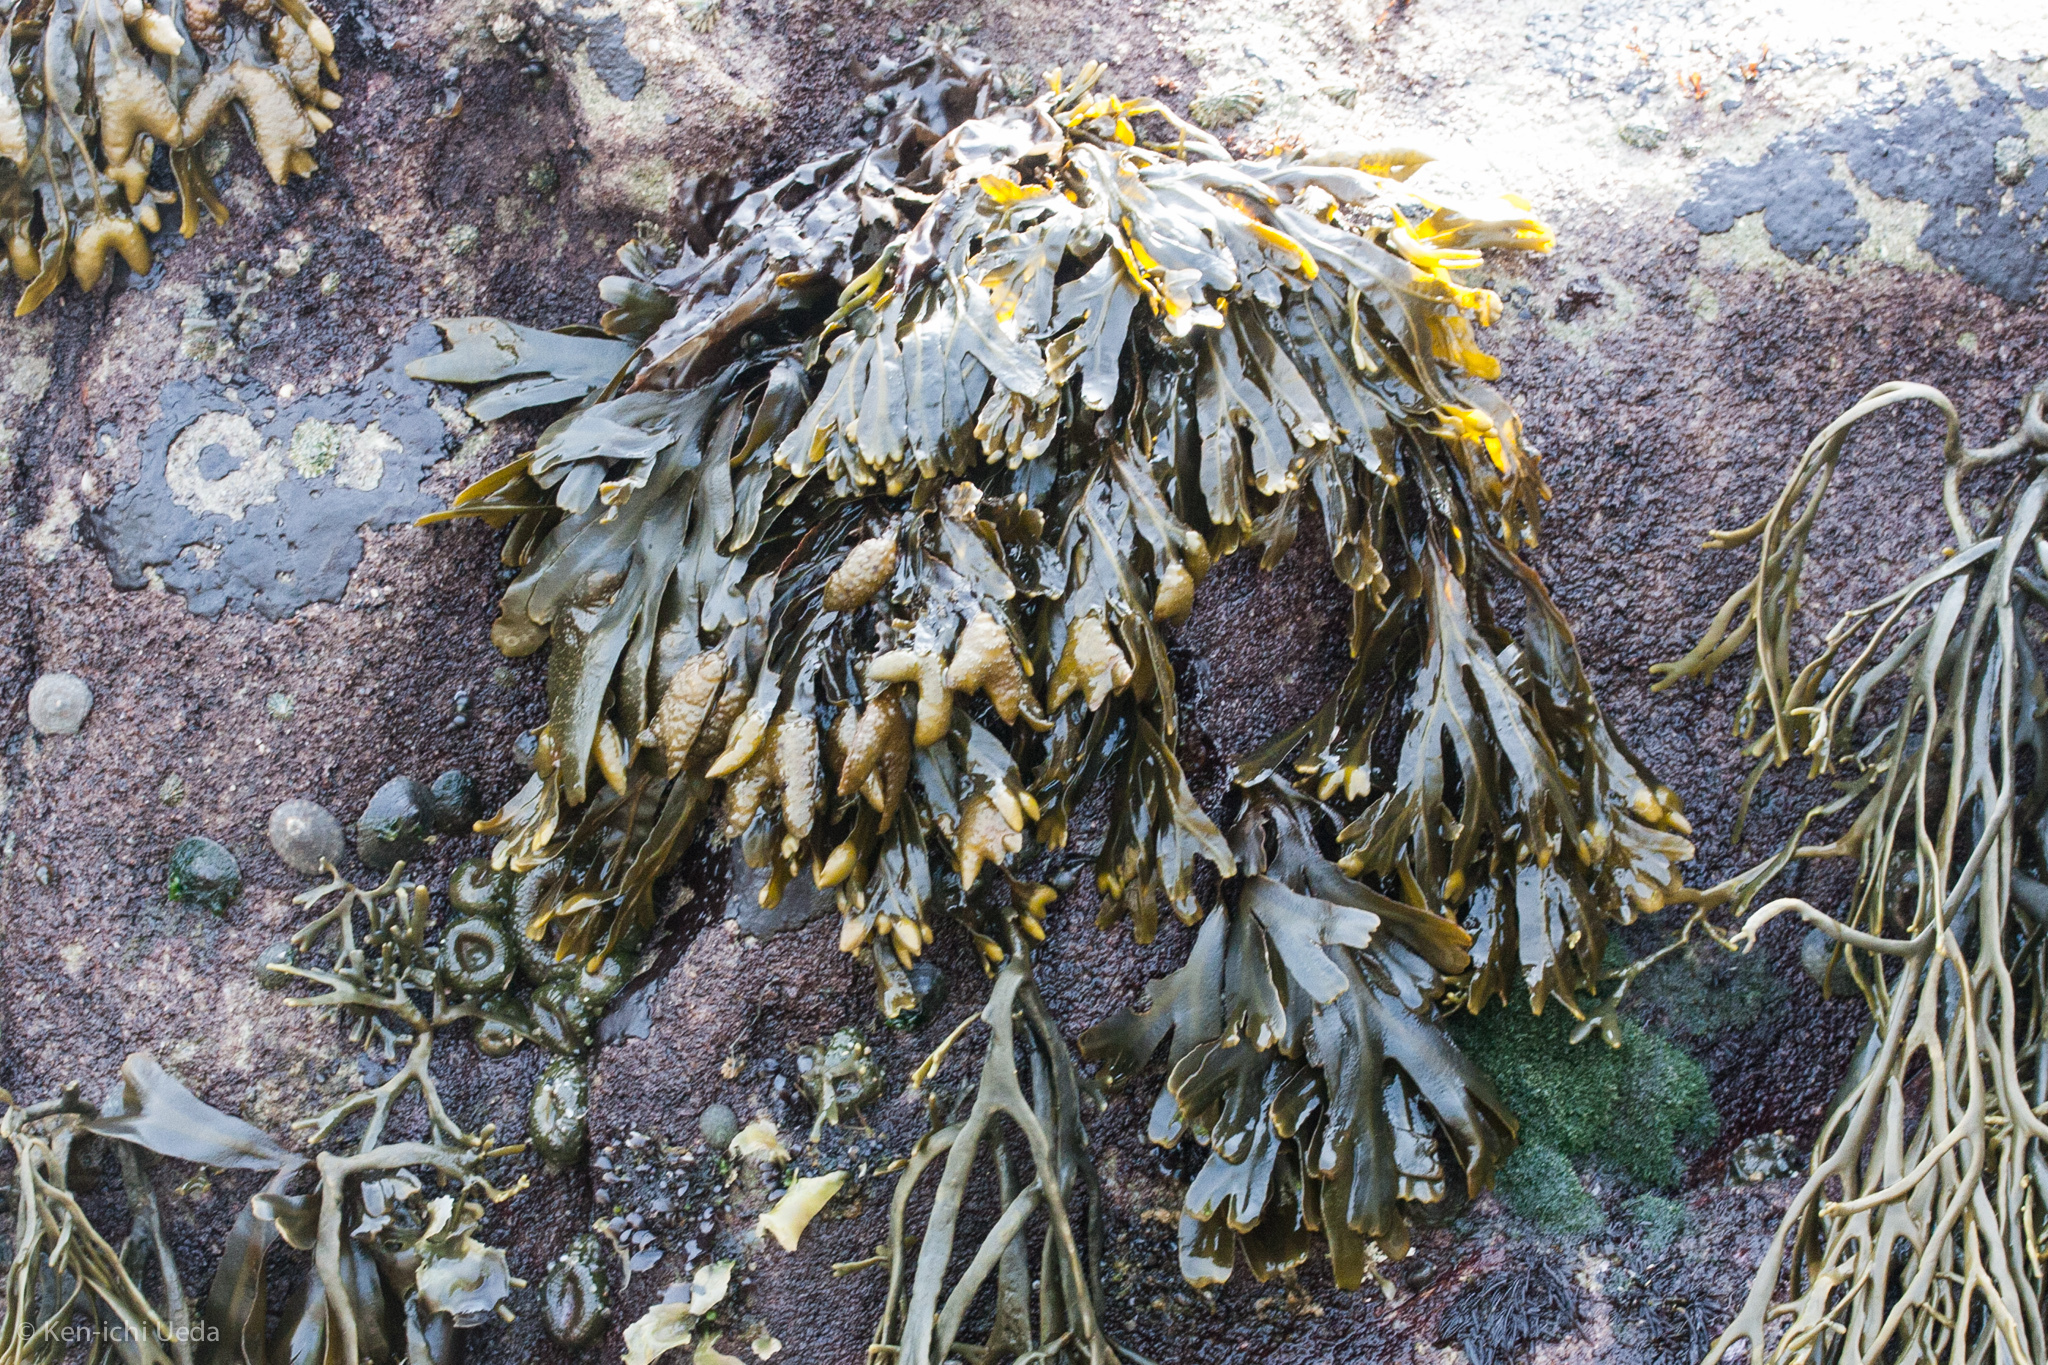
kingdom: Chromista
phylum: Ochrophyta
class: Phaeophyceae
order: Fucales
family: Fucaceae
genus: Fucus
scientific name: Fucus distichus
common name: Rockweed
